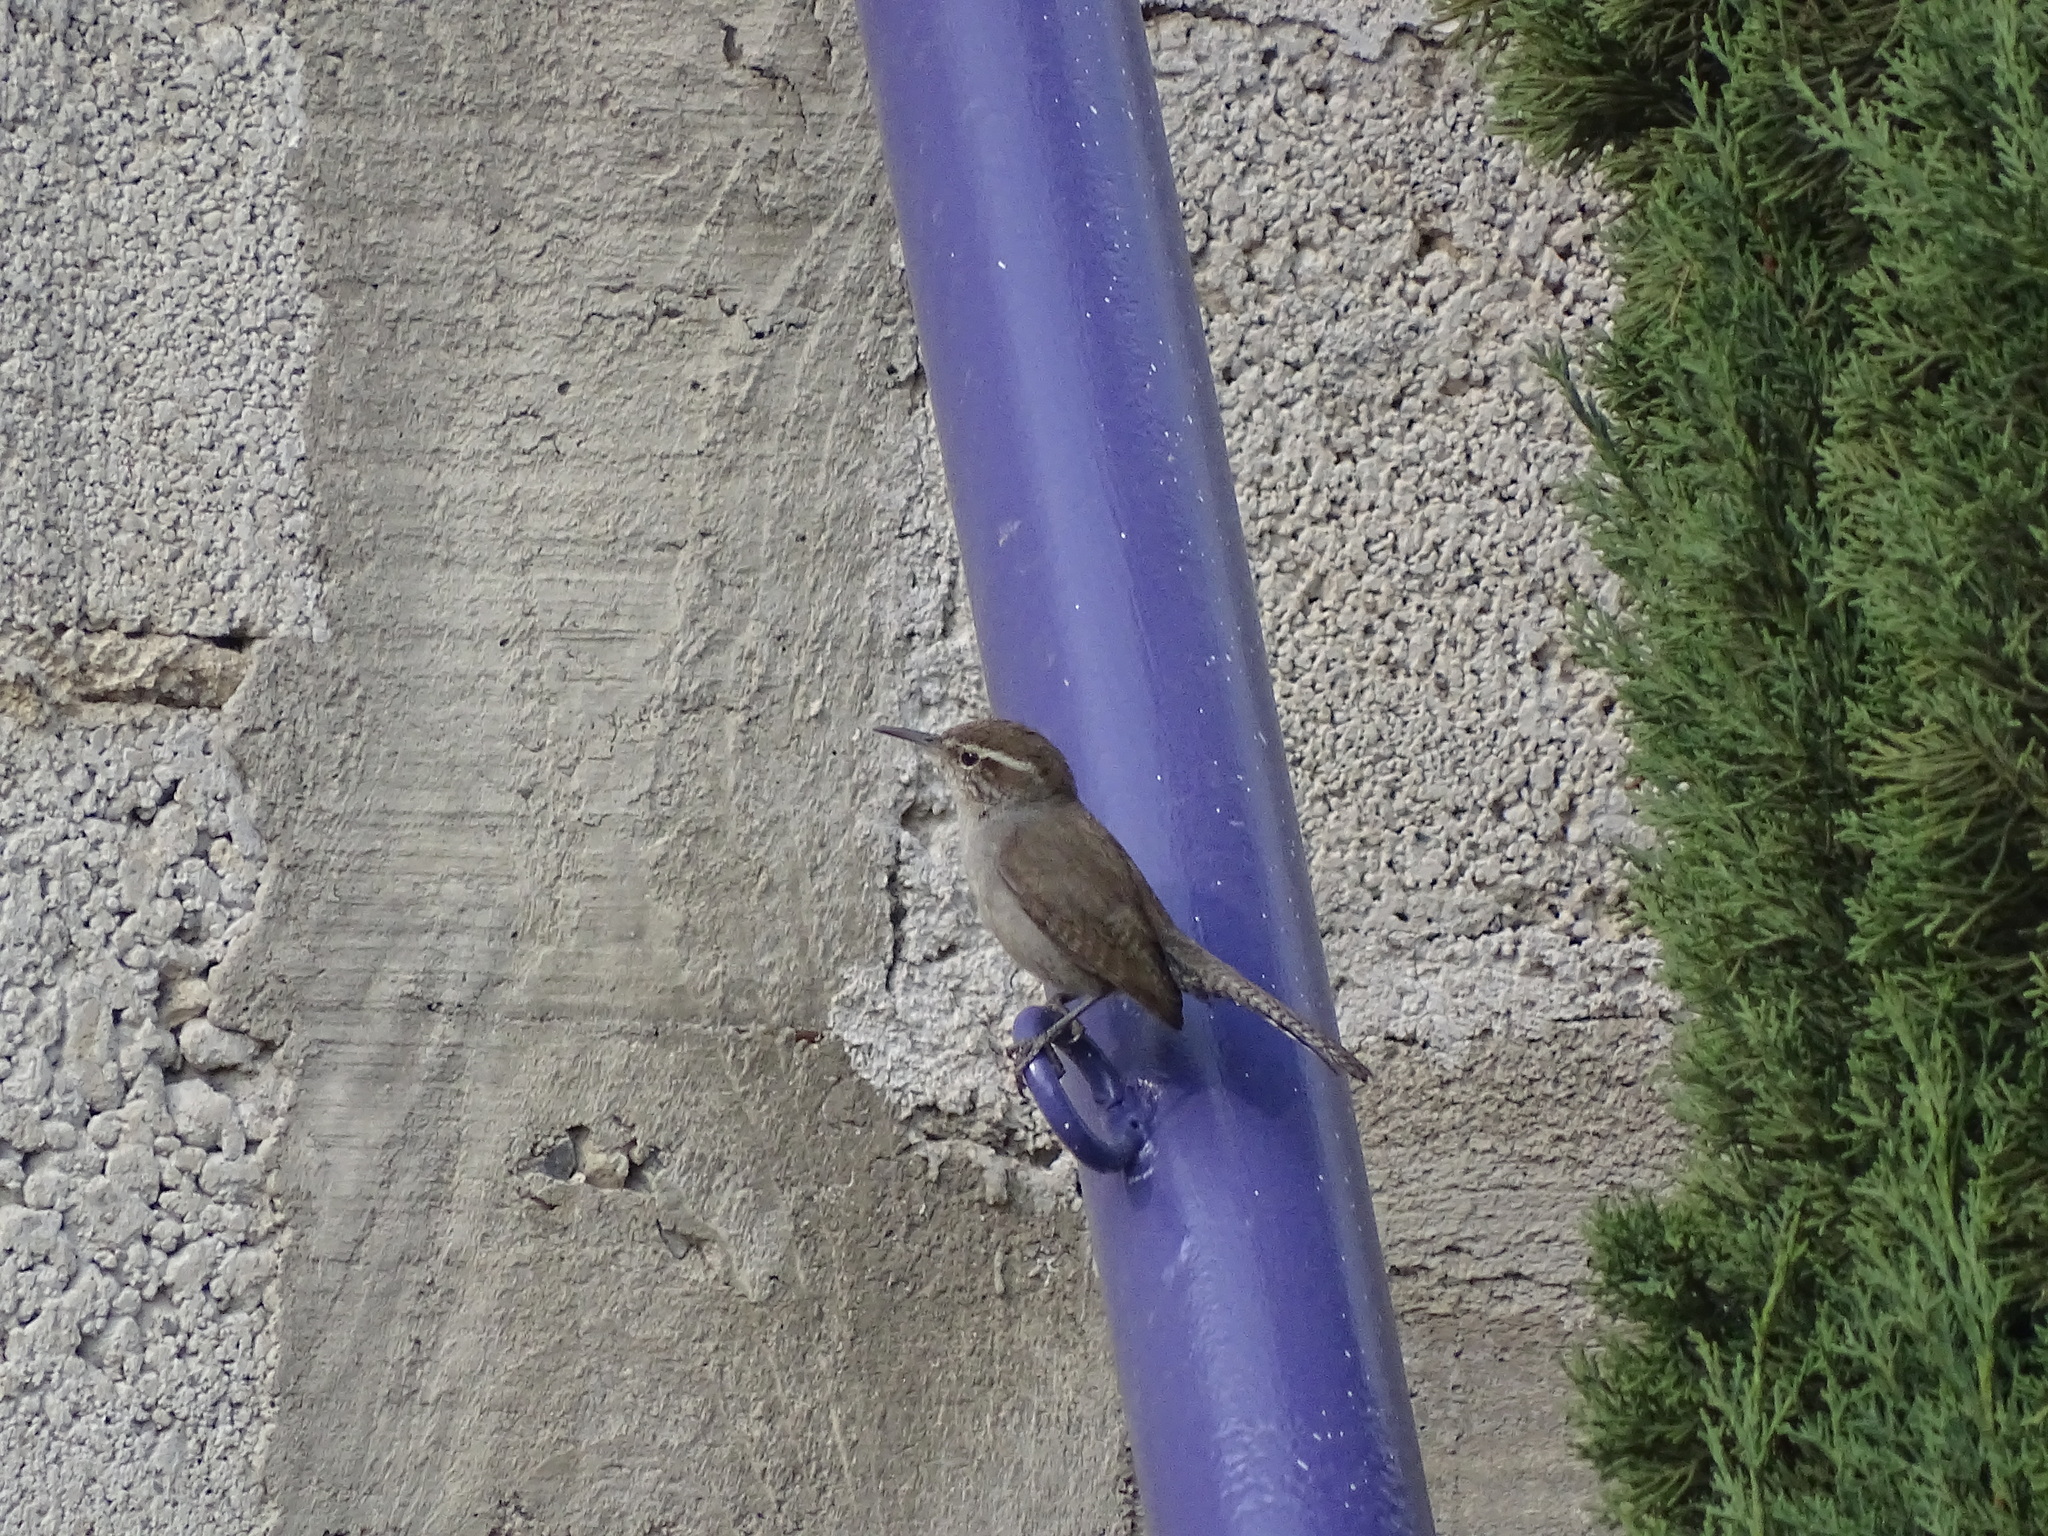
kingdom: Animalia
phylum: Chordata
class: Aves
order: Passeriformes
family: Troglodytidae
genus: Thryomanes
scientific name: Thryomanes bewickii
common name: Bewick's wren
